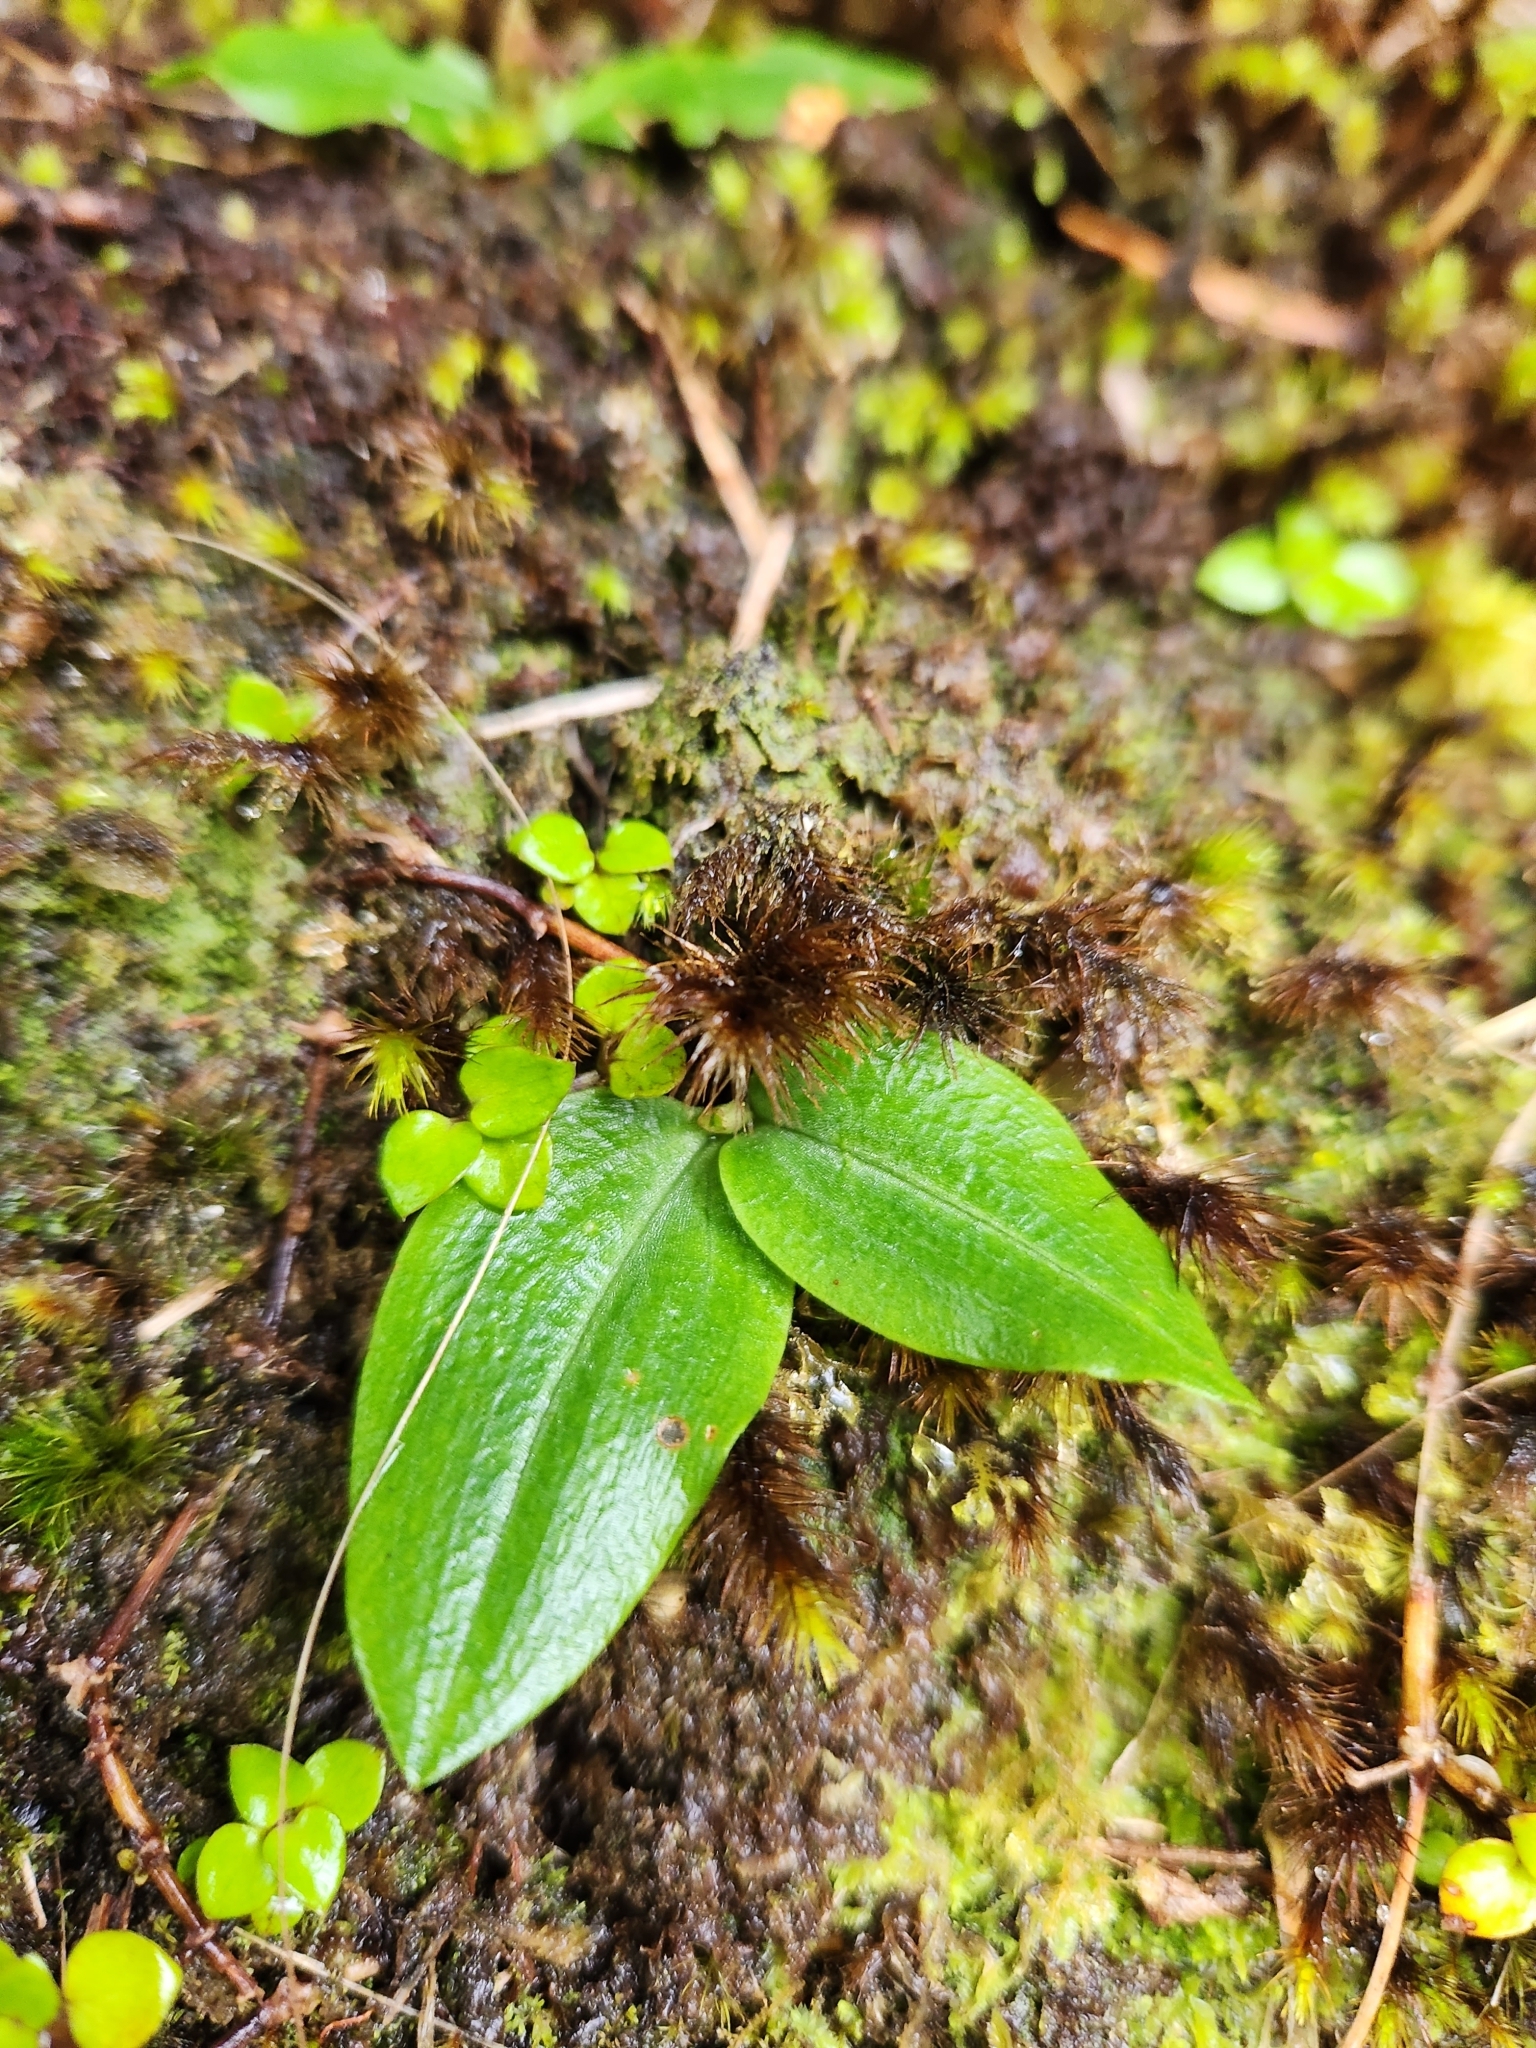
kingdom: Plantae
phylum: Tracheophyta
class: Liliopsida
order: Asparagales
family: Orchidaceae
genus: Chiloglottis
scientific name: Chiloglottis cornuta
